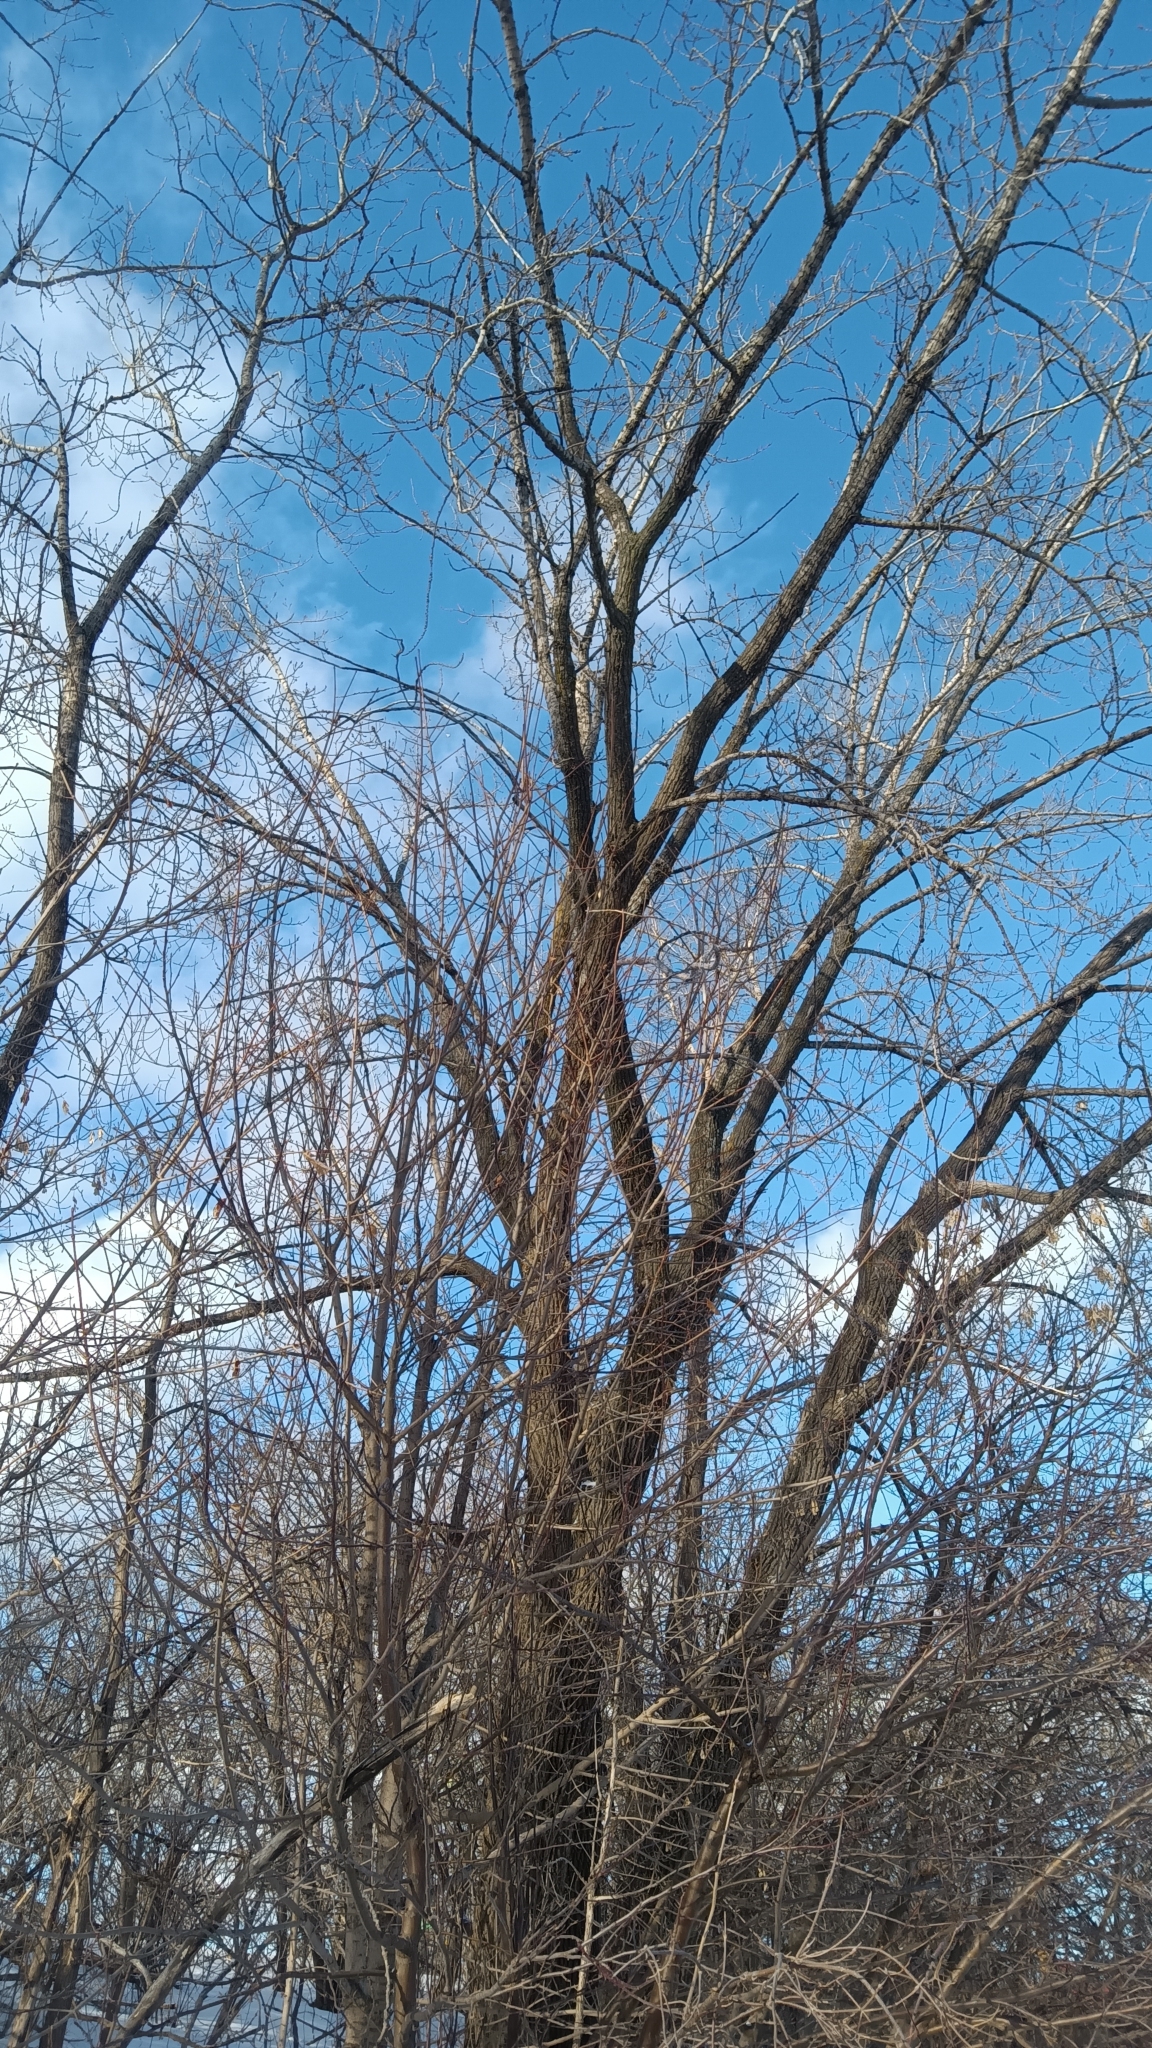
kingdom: Plantae
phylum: Tracheophyta
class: Magnoliopsida
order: Malpighiales
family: Salicaceae
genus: Populus
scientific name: Populus deltoides
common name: Eastern cottonwood
